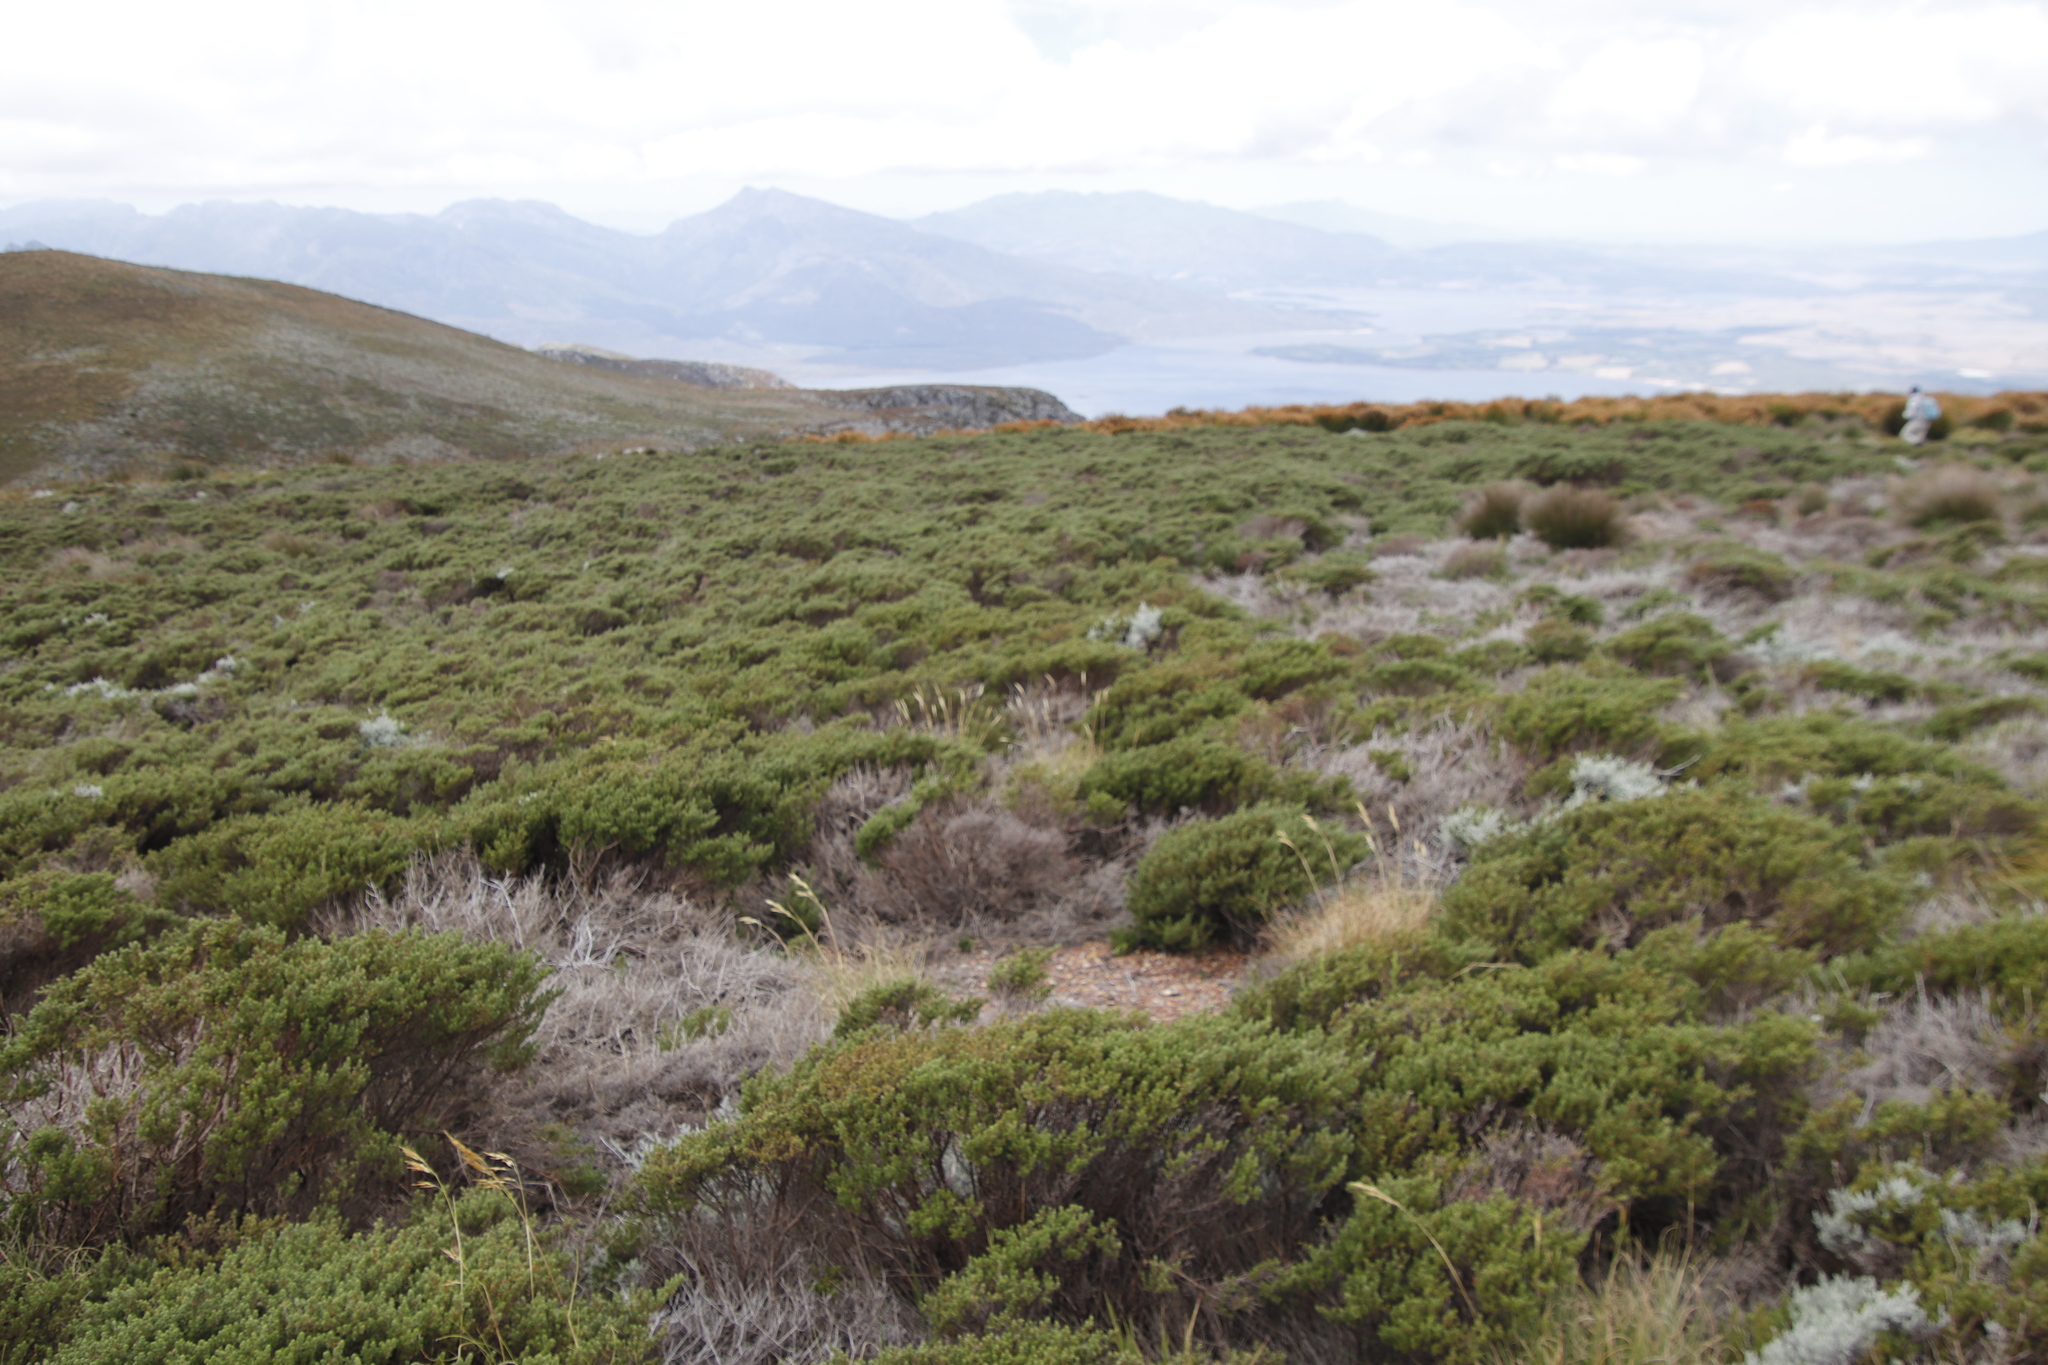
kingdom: Plantae
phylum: Tracheophyta
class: Magnoliopsida
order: Rosales
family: Rosaceae
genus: Cliffortia
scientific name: Cliffortia eriocephalina
